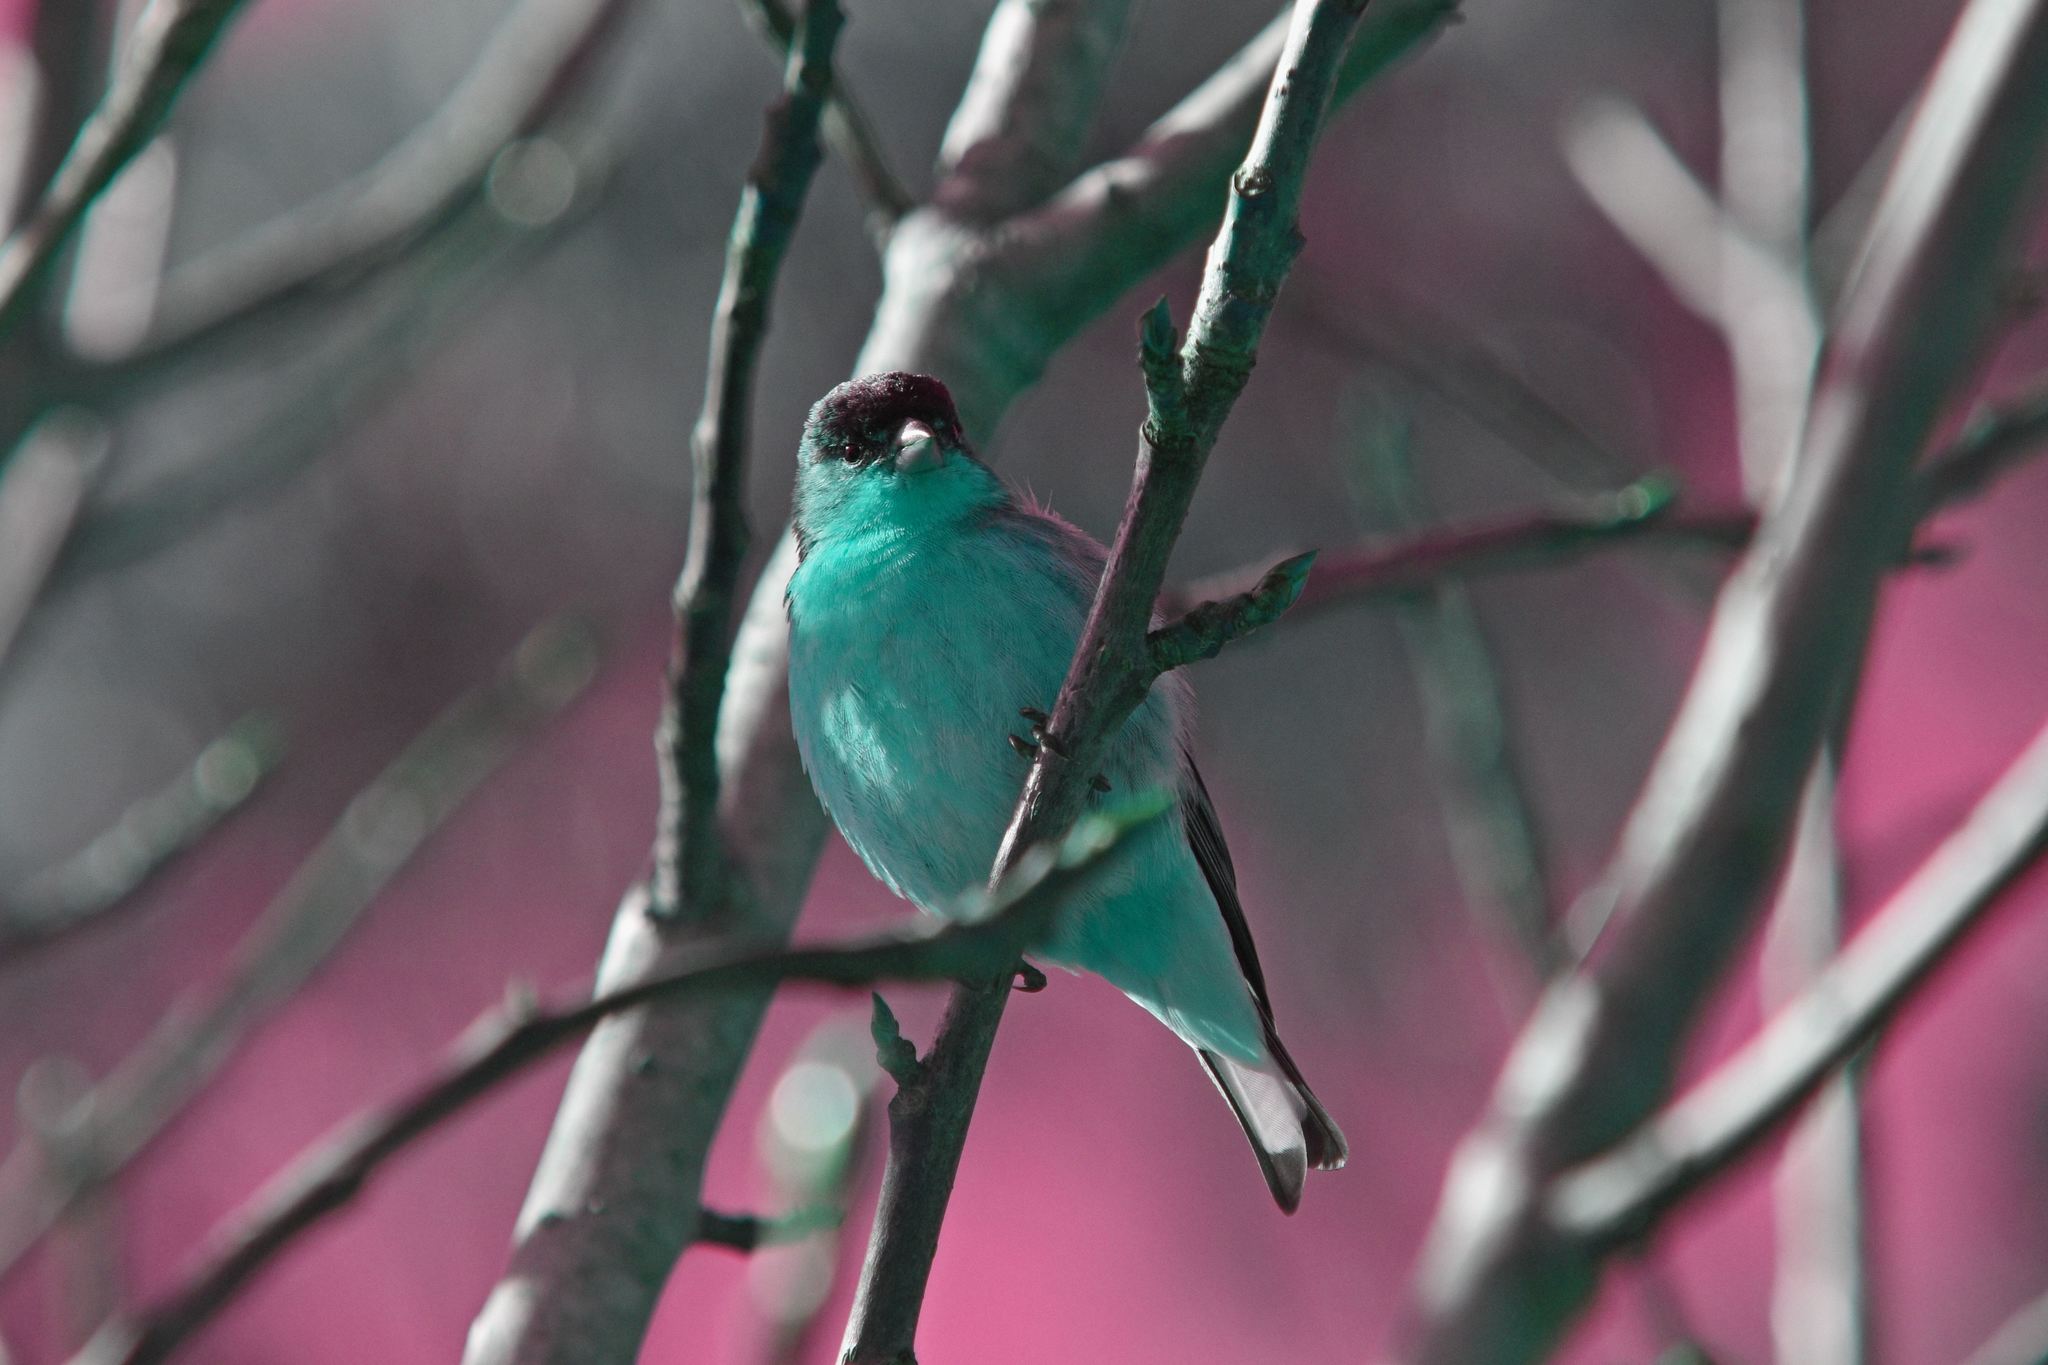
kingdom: Animalia
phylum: Chordata
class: Aves
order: Passeriformes
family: Fringillidae
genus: Spinus
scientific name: Spinus psaltria
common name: Lesser goldfinch
